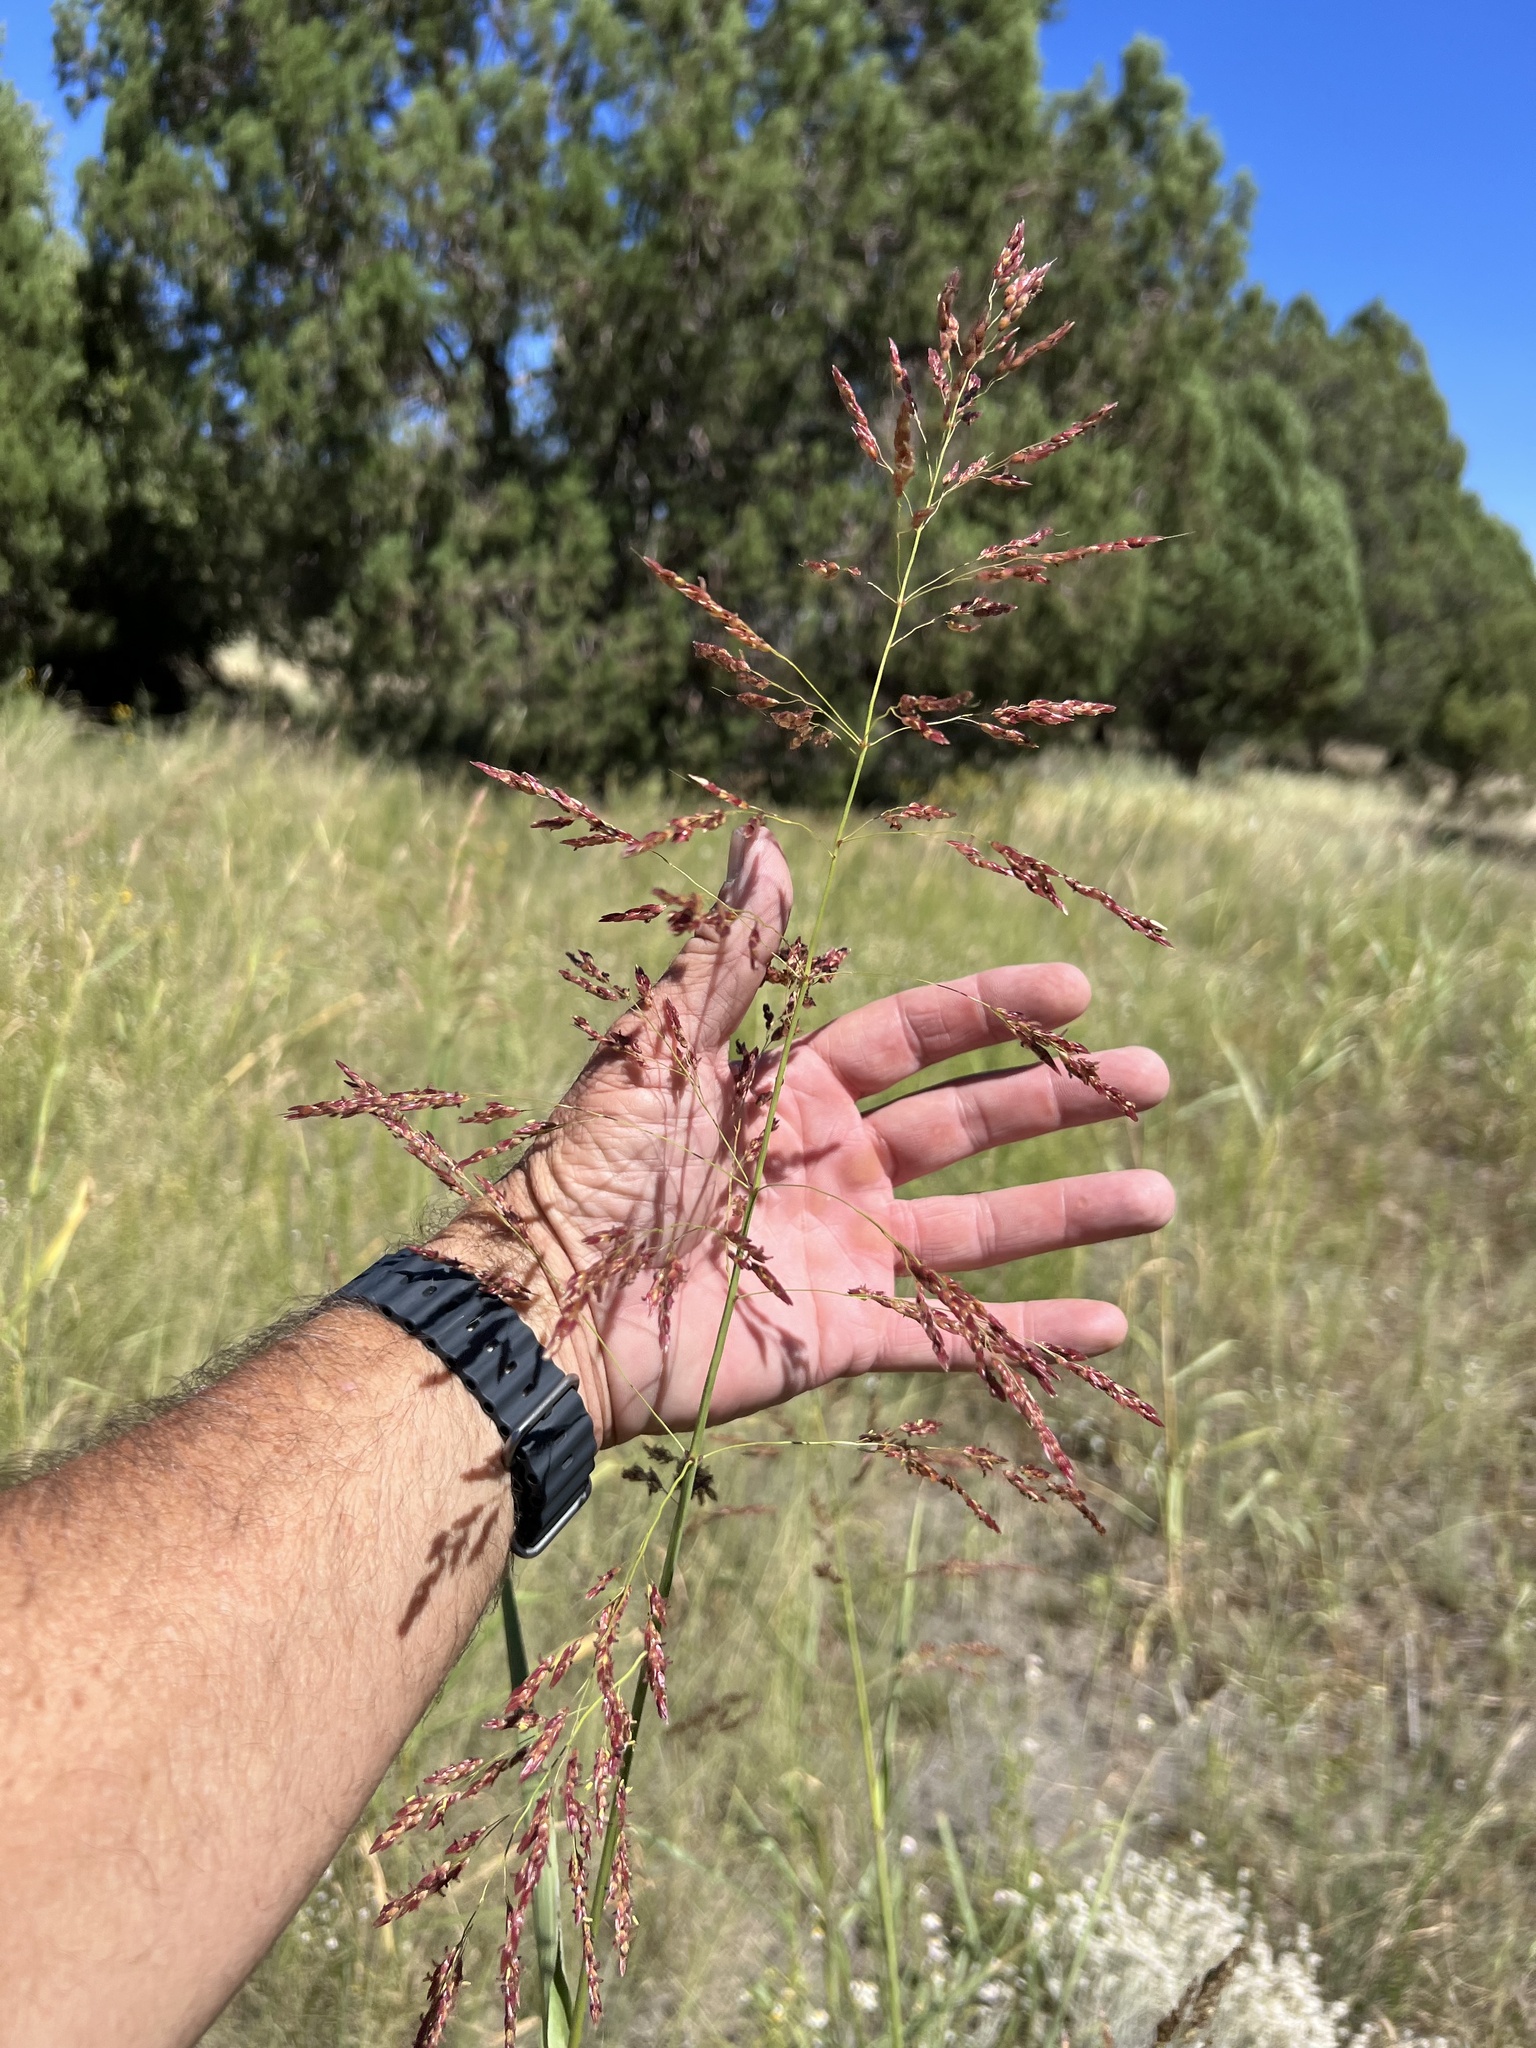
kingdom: Plantae
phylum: Tracheophyta
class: Liliopsida
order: Poales
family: Poaceae
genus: Sorghum
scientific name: Sorghum halepense
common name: Johnson-grass
